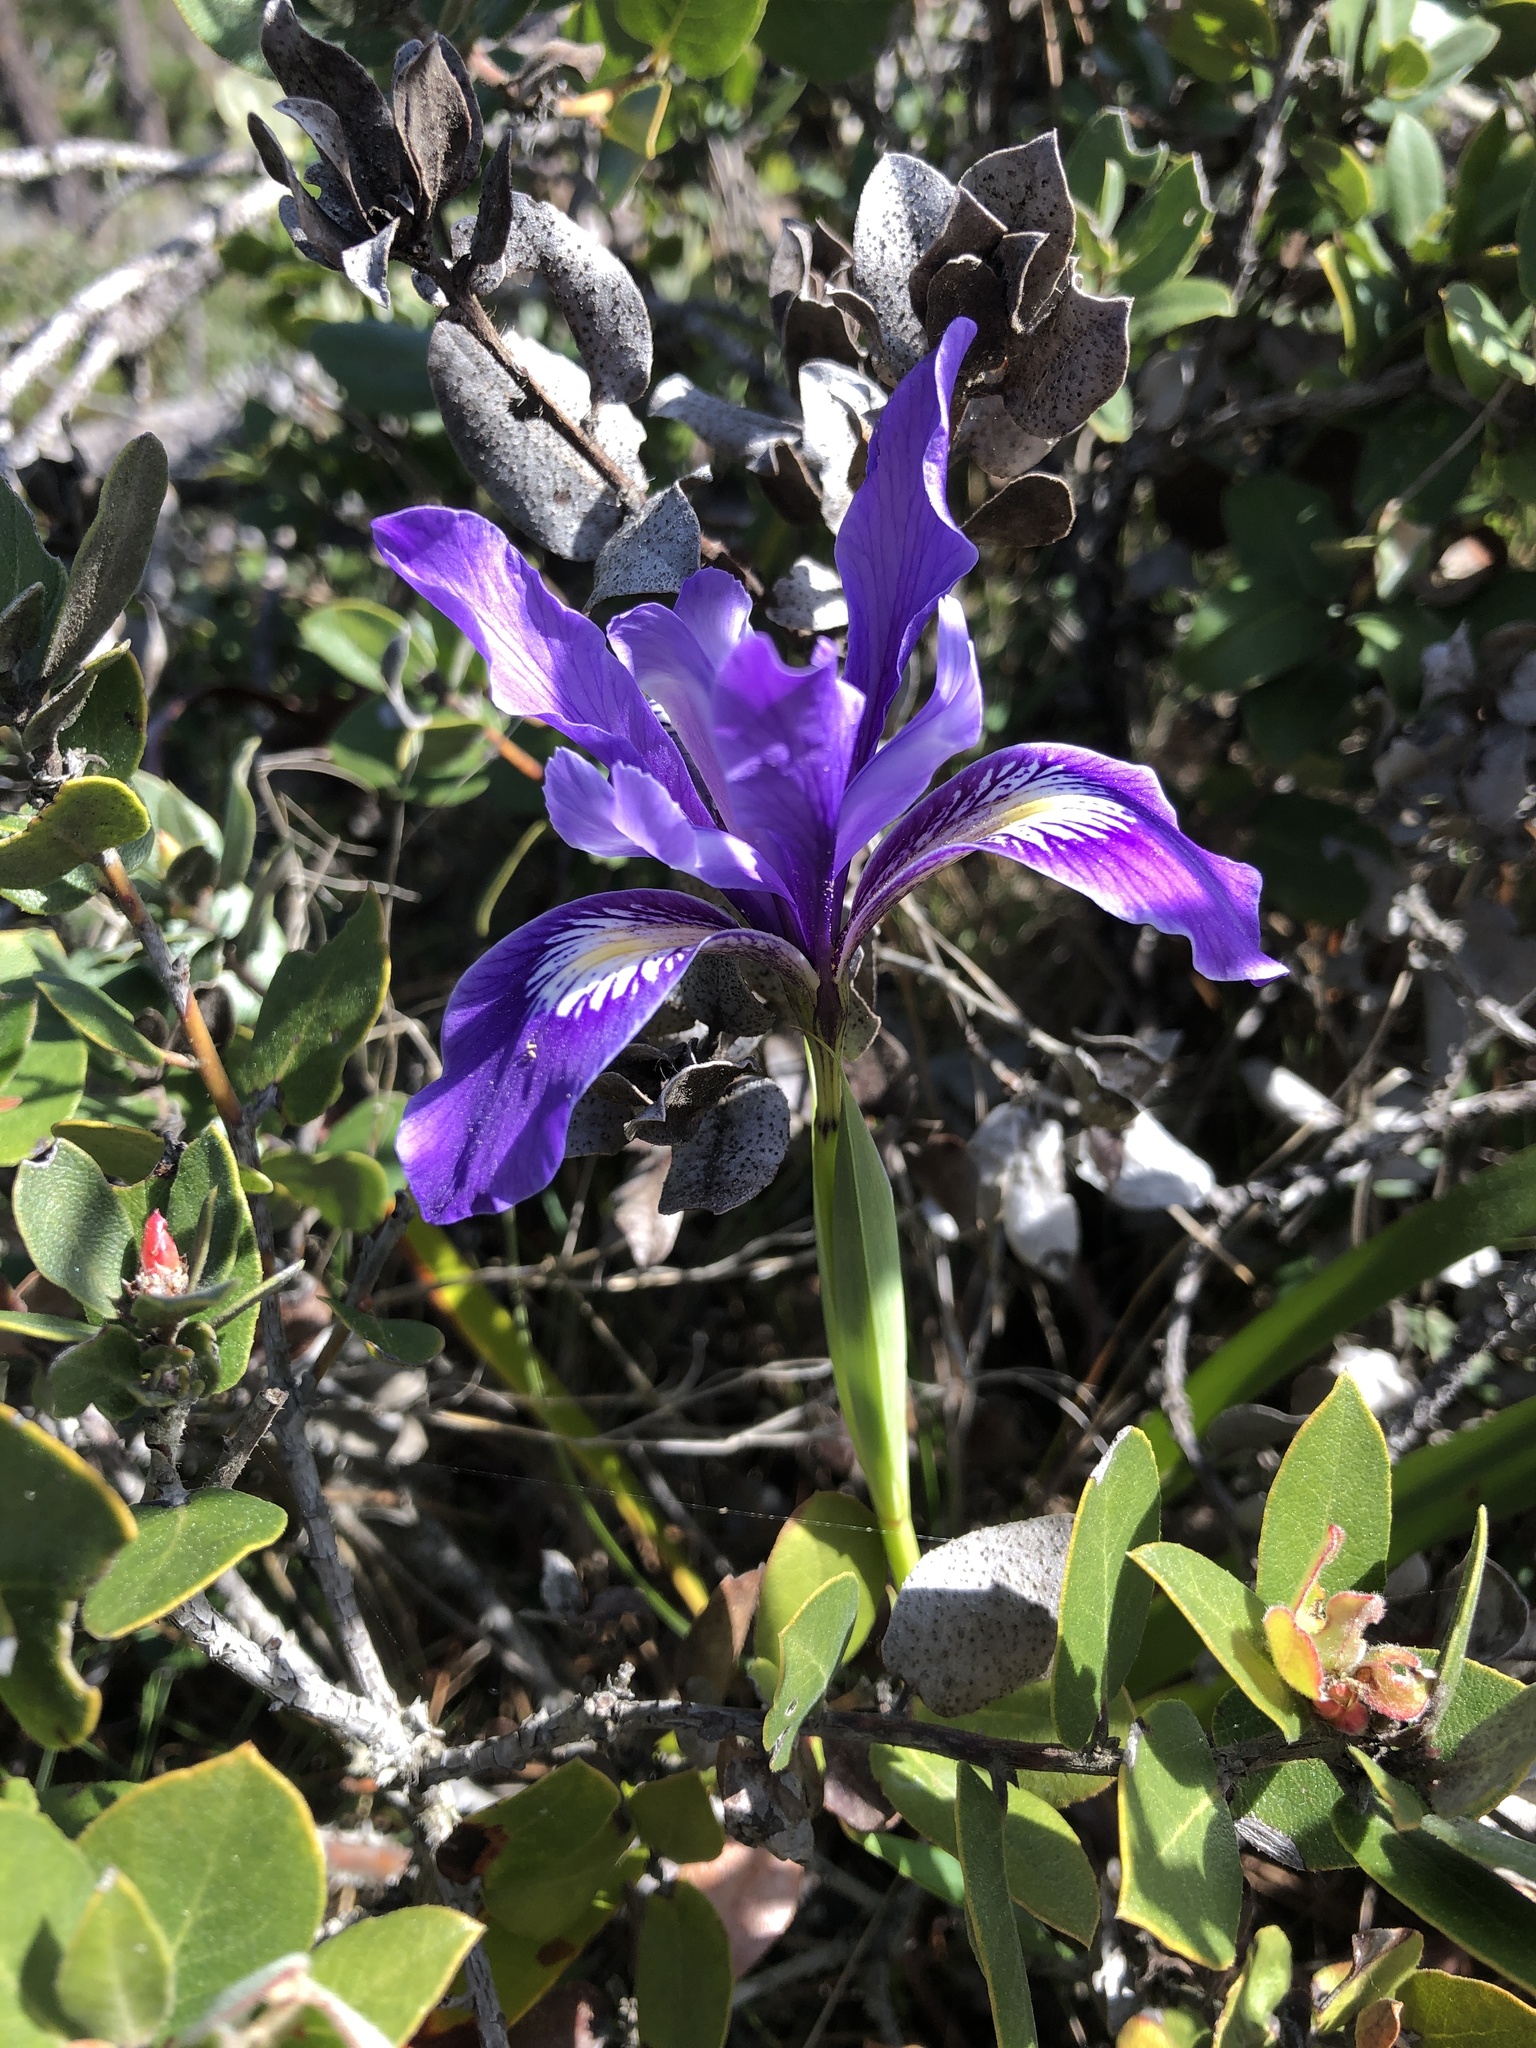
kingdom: Plantae
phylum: Tracheophyta
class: Liliopsida
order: Asparagales
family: Iridaceae
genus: Iris
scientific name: Iris douglasiana
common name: Marin iris
